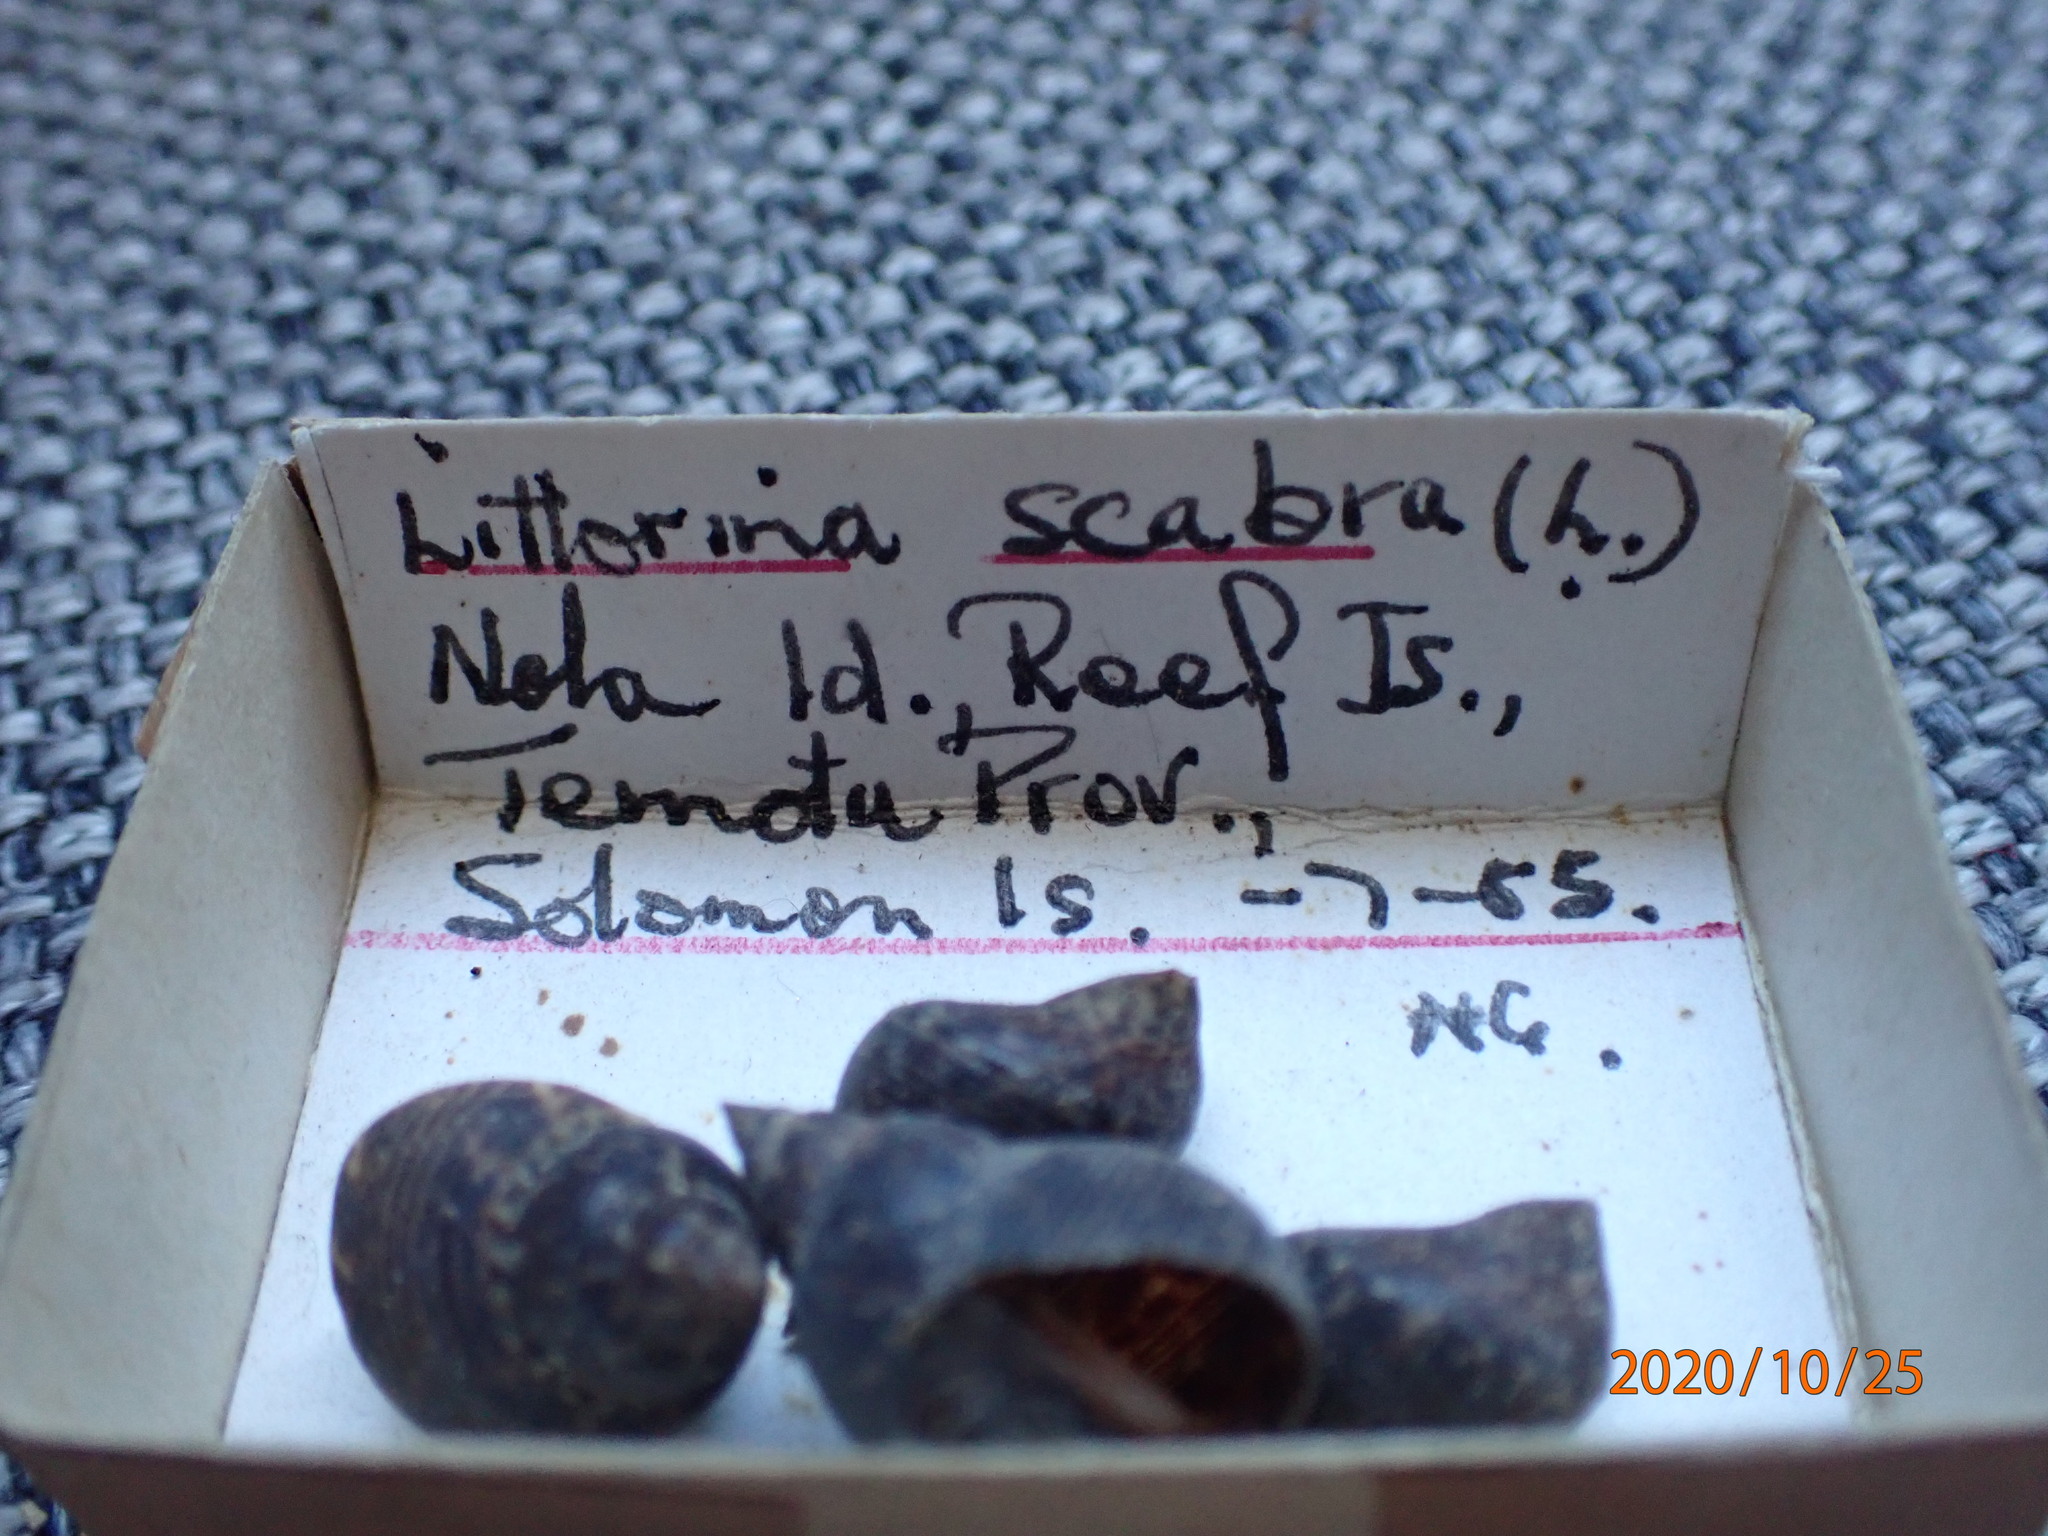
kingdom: Animalia
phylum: Mollusca
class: Gastropoda
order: Littorinimorpha
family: Littorinidae
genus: Littoraria
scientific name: Littoraria scabra
